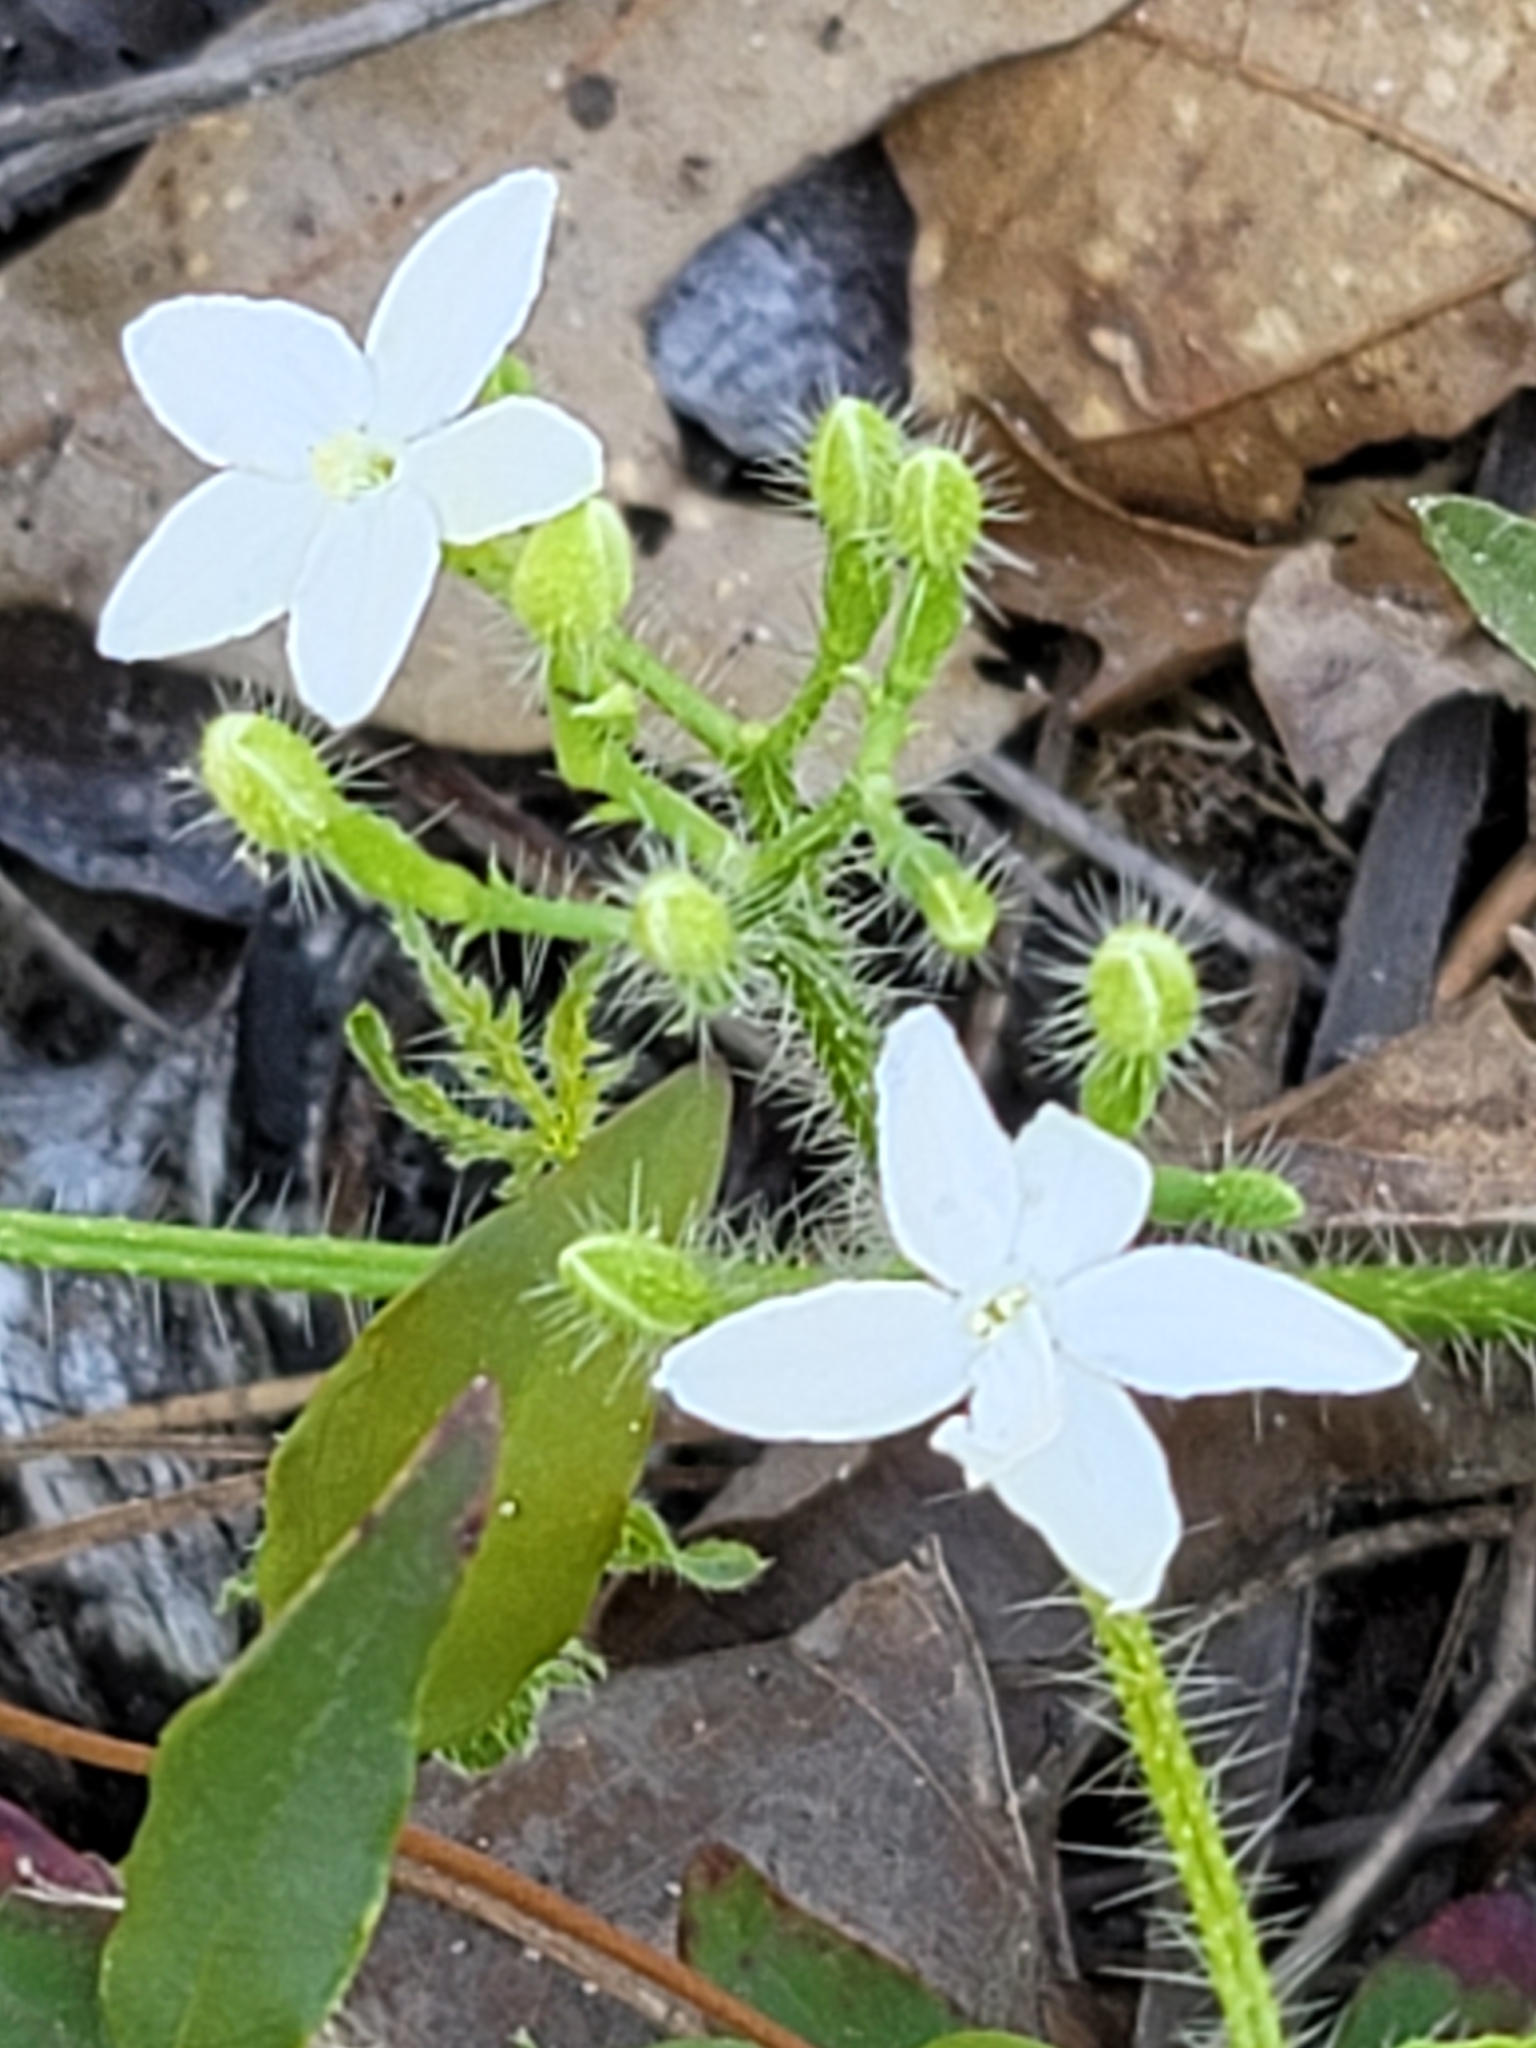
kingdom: Plantae
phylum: Tracheophyta
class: Magnoliopsida
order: Malpighiales
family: Euphorbiaceae
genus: Cnidoscolus
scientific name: Cnidoscolus stimulosus
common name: Bull-nettle
